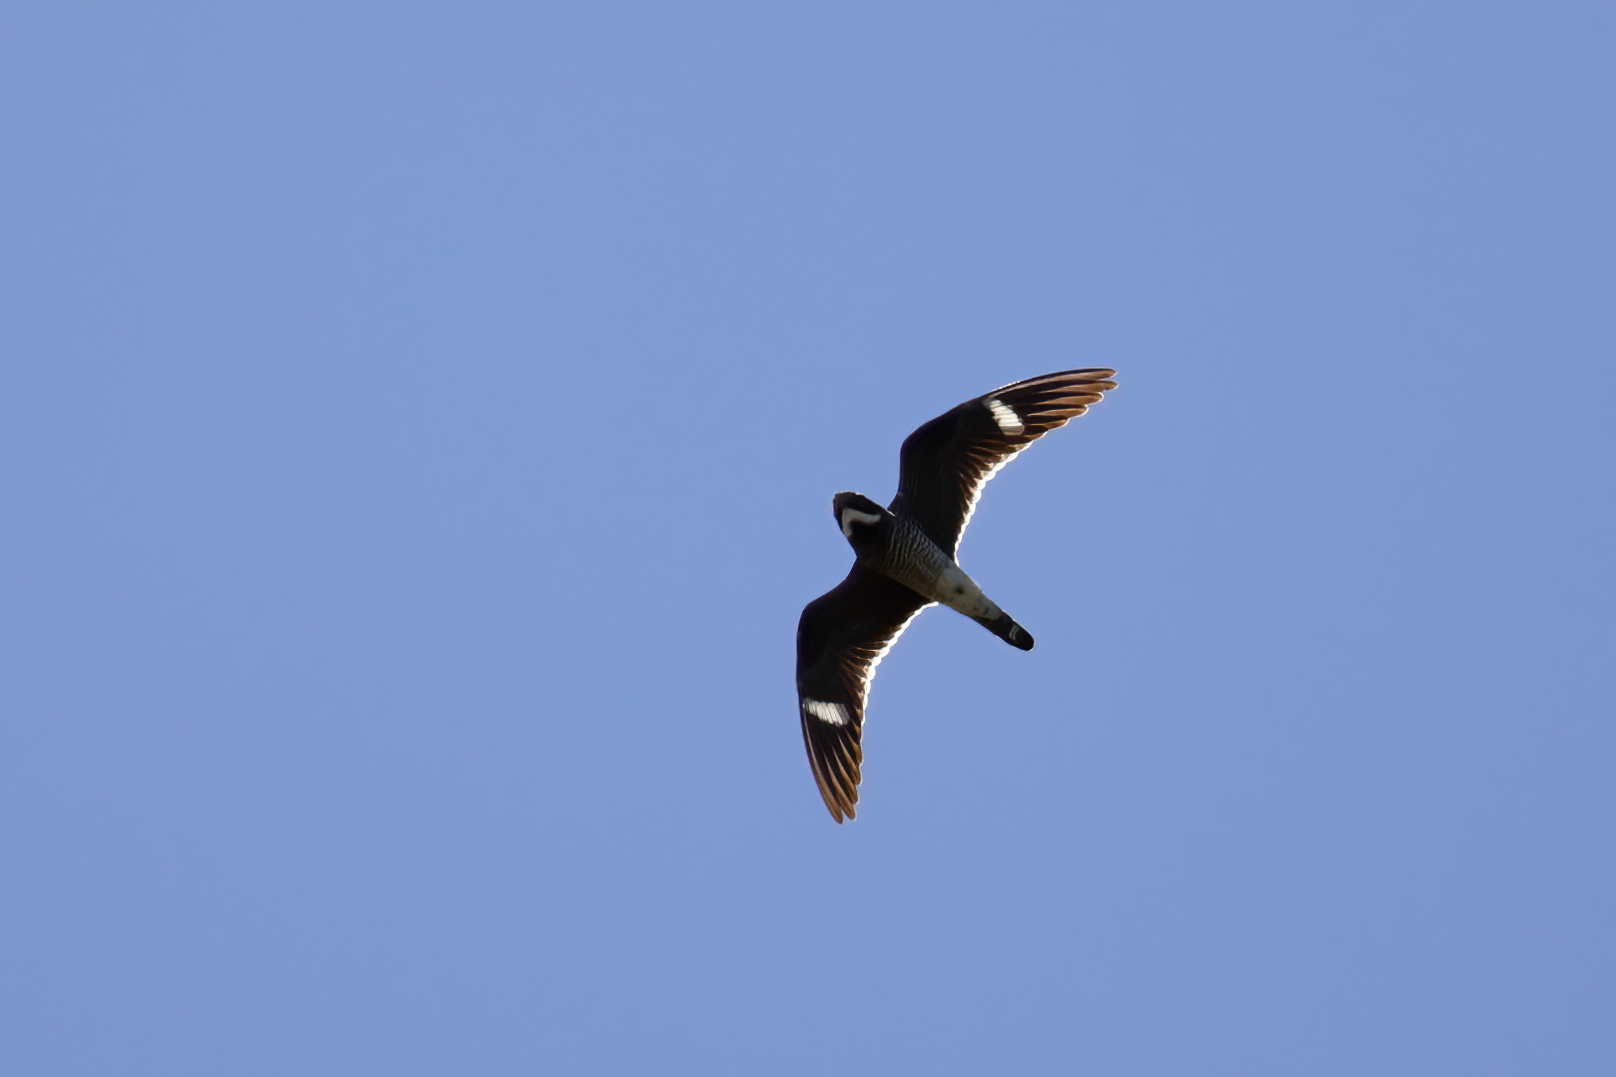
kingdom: Animalia
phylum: Chordata
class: Aves
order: Caprimulgiformes
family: Caprimulgidae
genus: Chordeiles
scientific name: Chordeiles minor
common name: Common nighthawk
